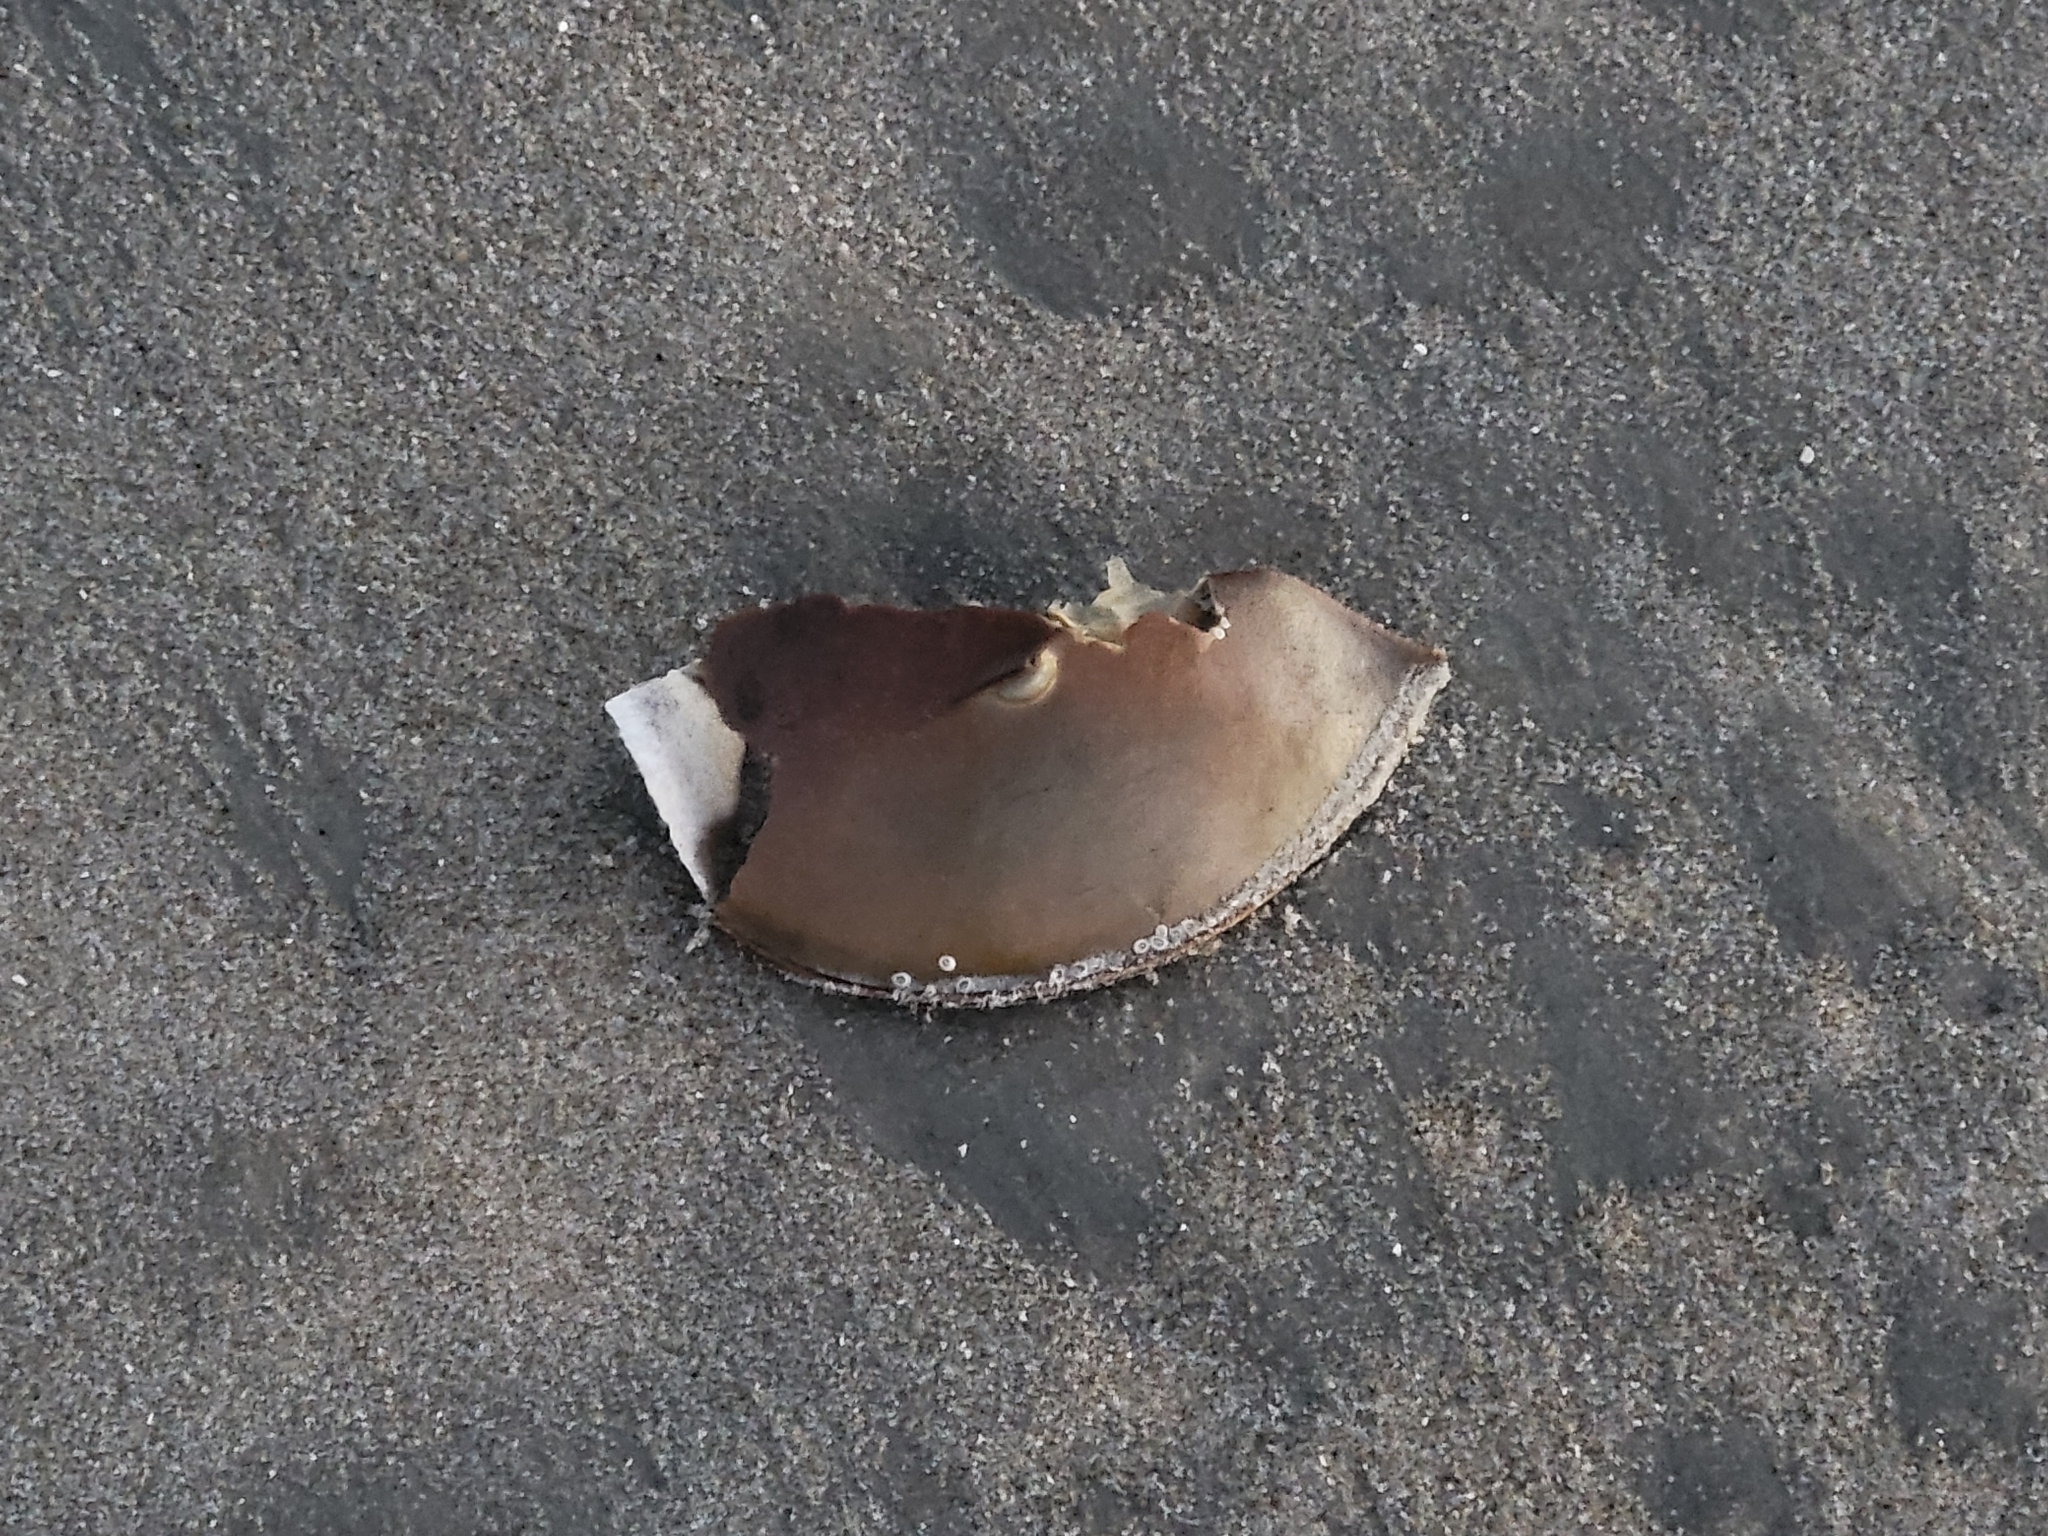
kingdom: Animalia
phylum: Arthropoda
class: Merostomata
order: Xiphosurida
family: Limulidae
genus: Limulus
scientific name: Limulus polyphemus
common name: Horseshoe crab
